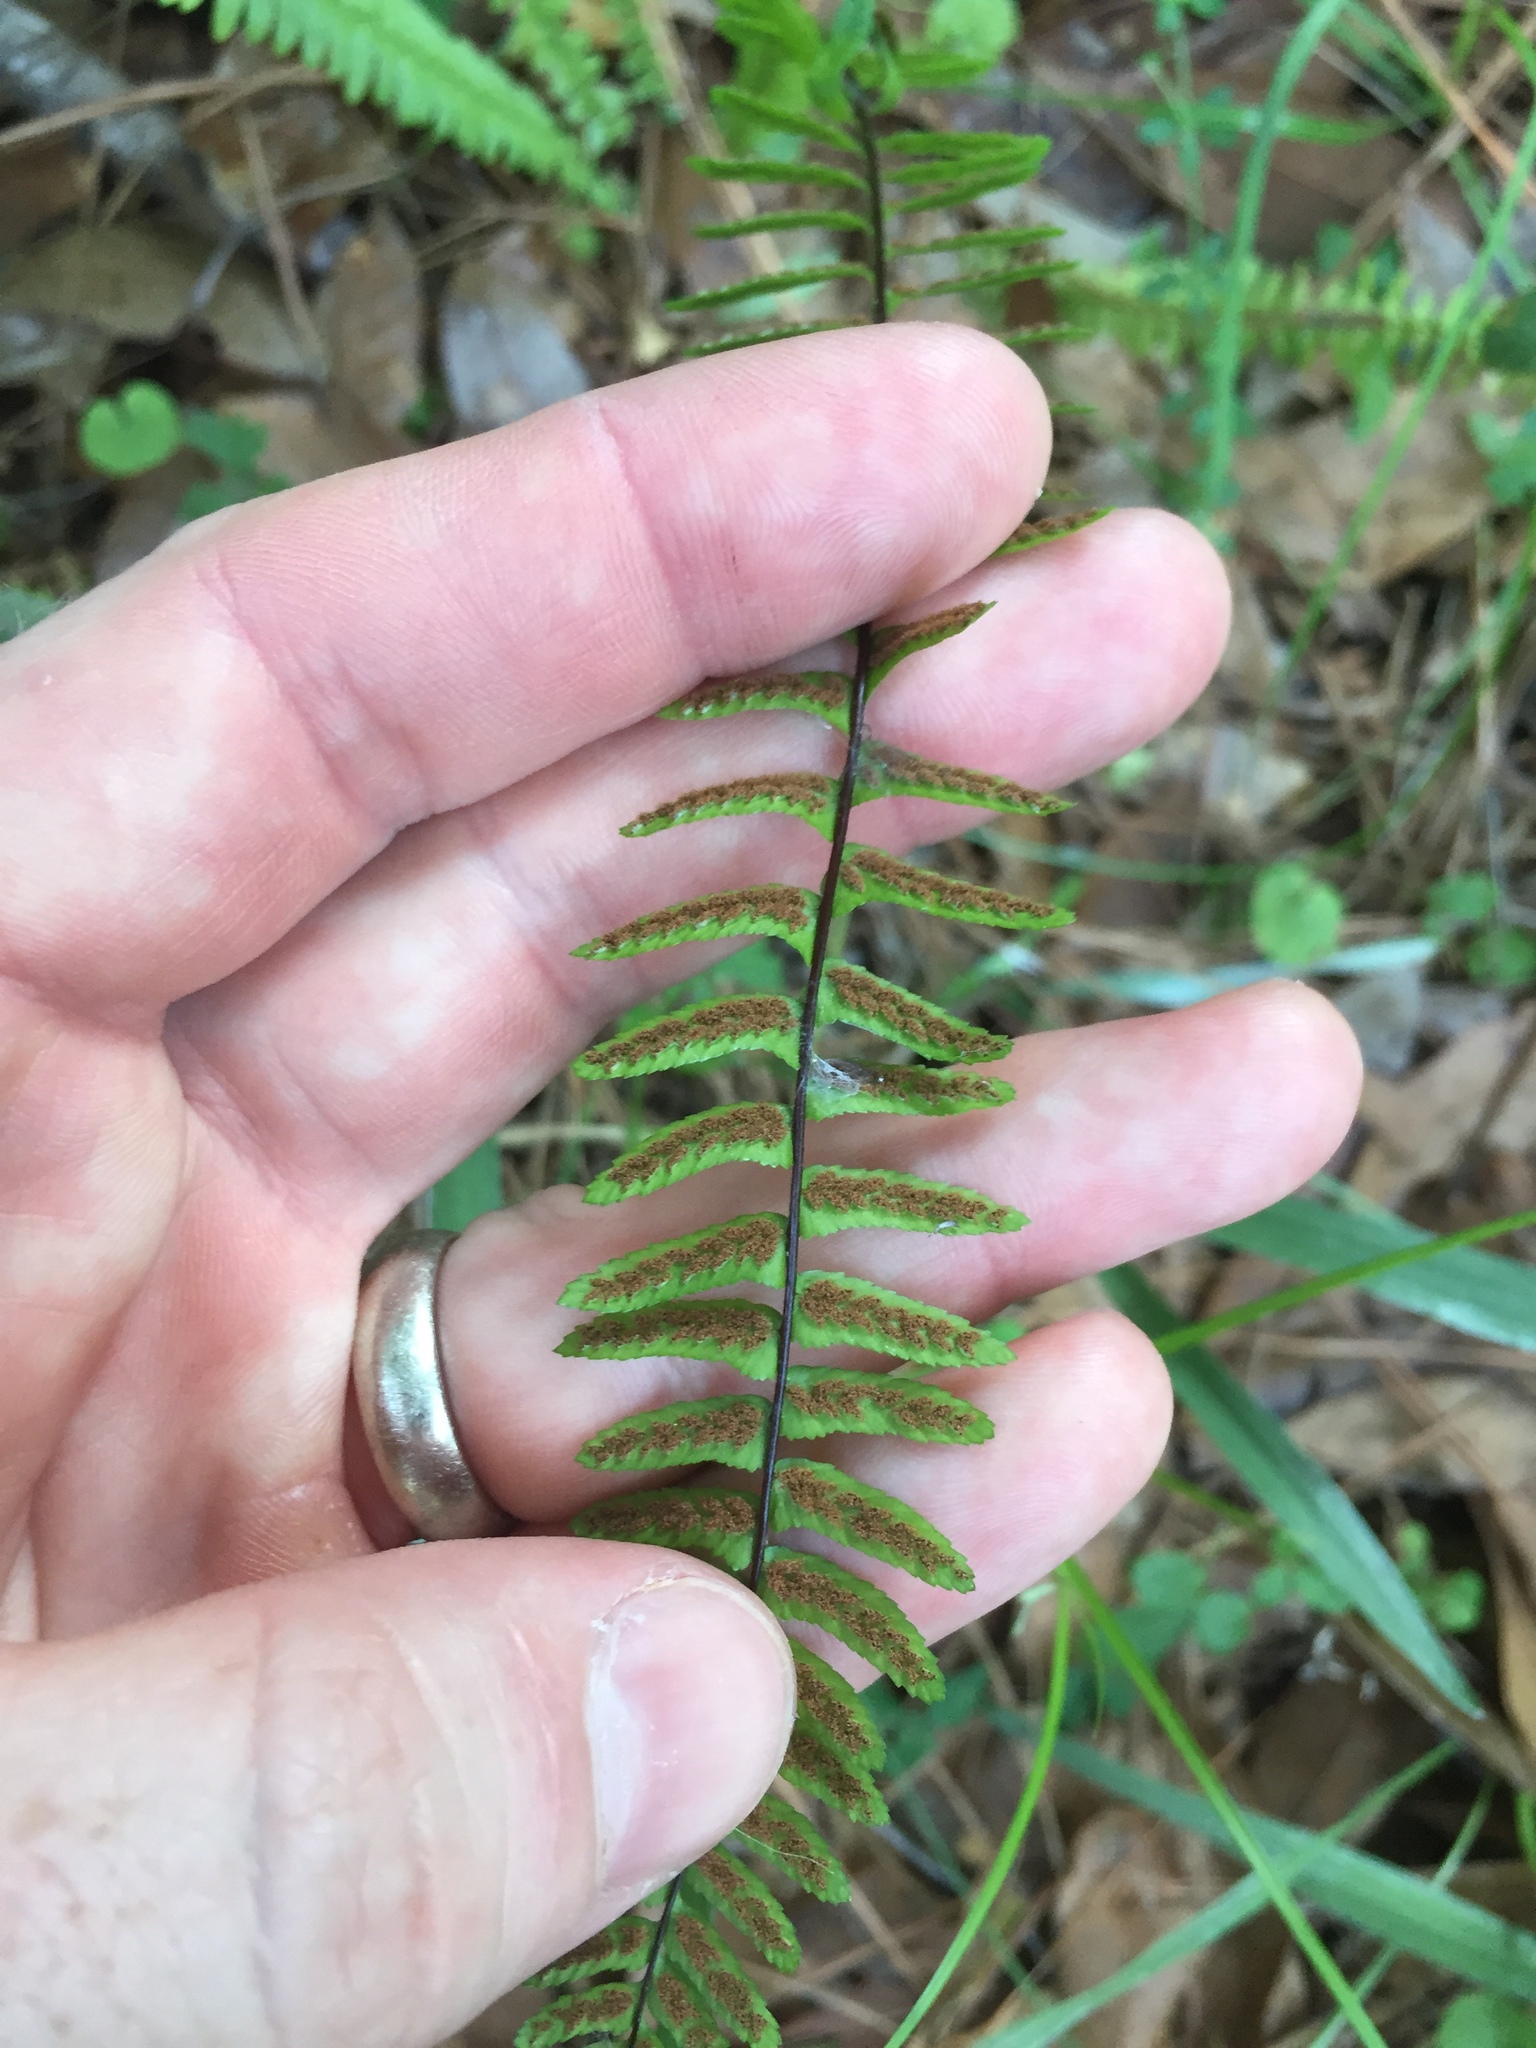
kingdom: Plantae
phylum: Tracheophyta
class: Polypodiopsida
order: Polypodiales
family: Aspleniaceae
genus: Asplenium
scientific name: Asplenium platyneuron
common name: Ebony spleenwort
